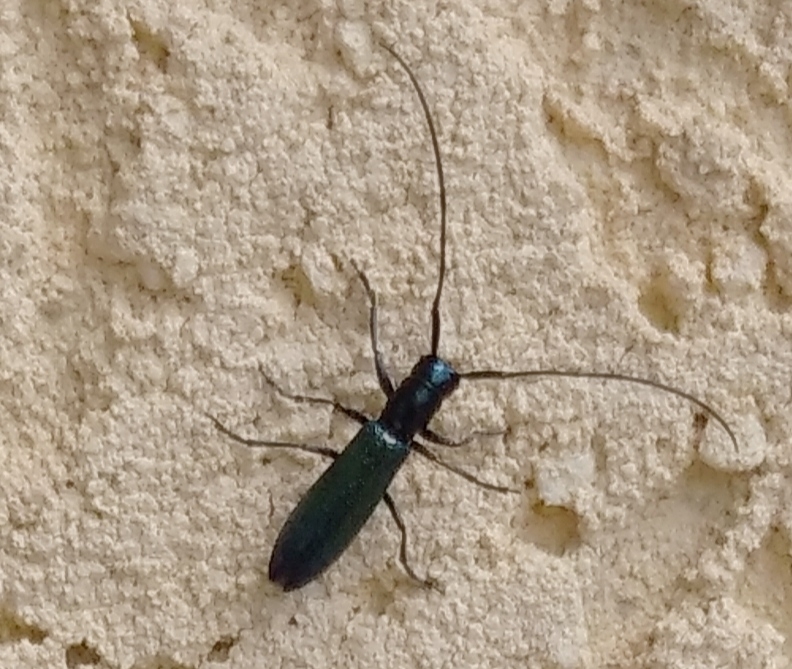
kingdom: Animalia
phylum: Arthropoda
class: Insecta
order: Coleoptera
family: Cerambycidae
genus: Agapanthiola
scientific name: Agapanthiola leucaspis
